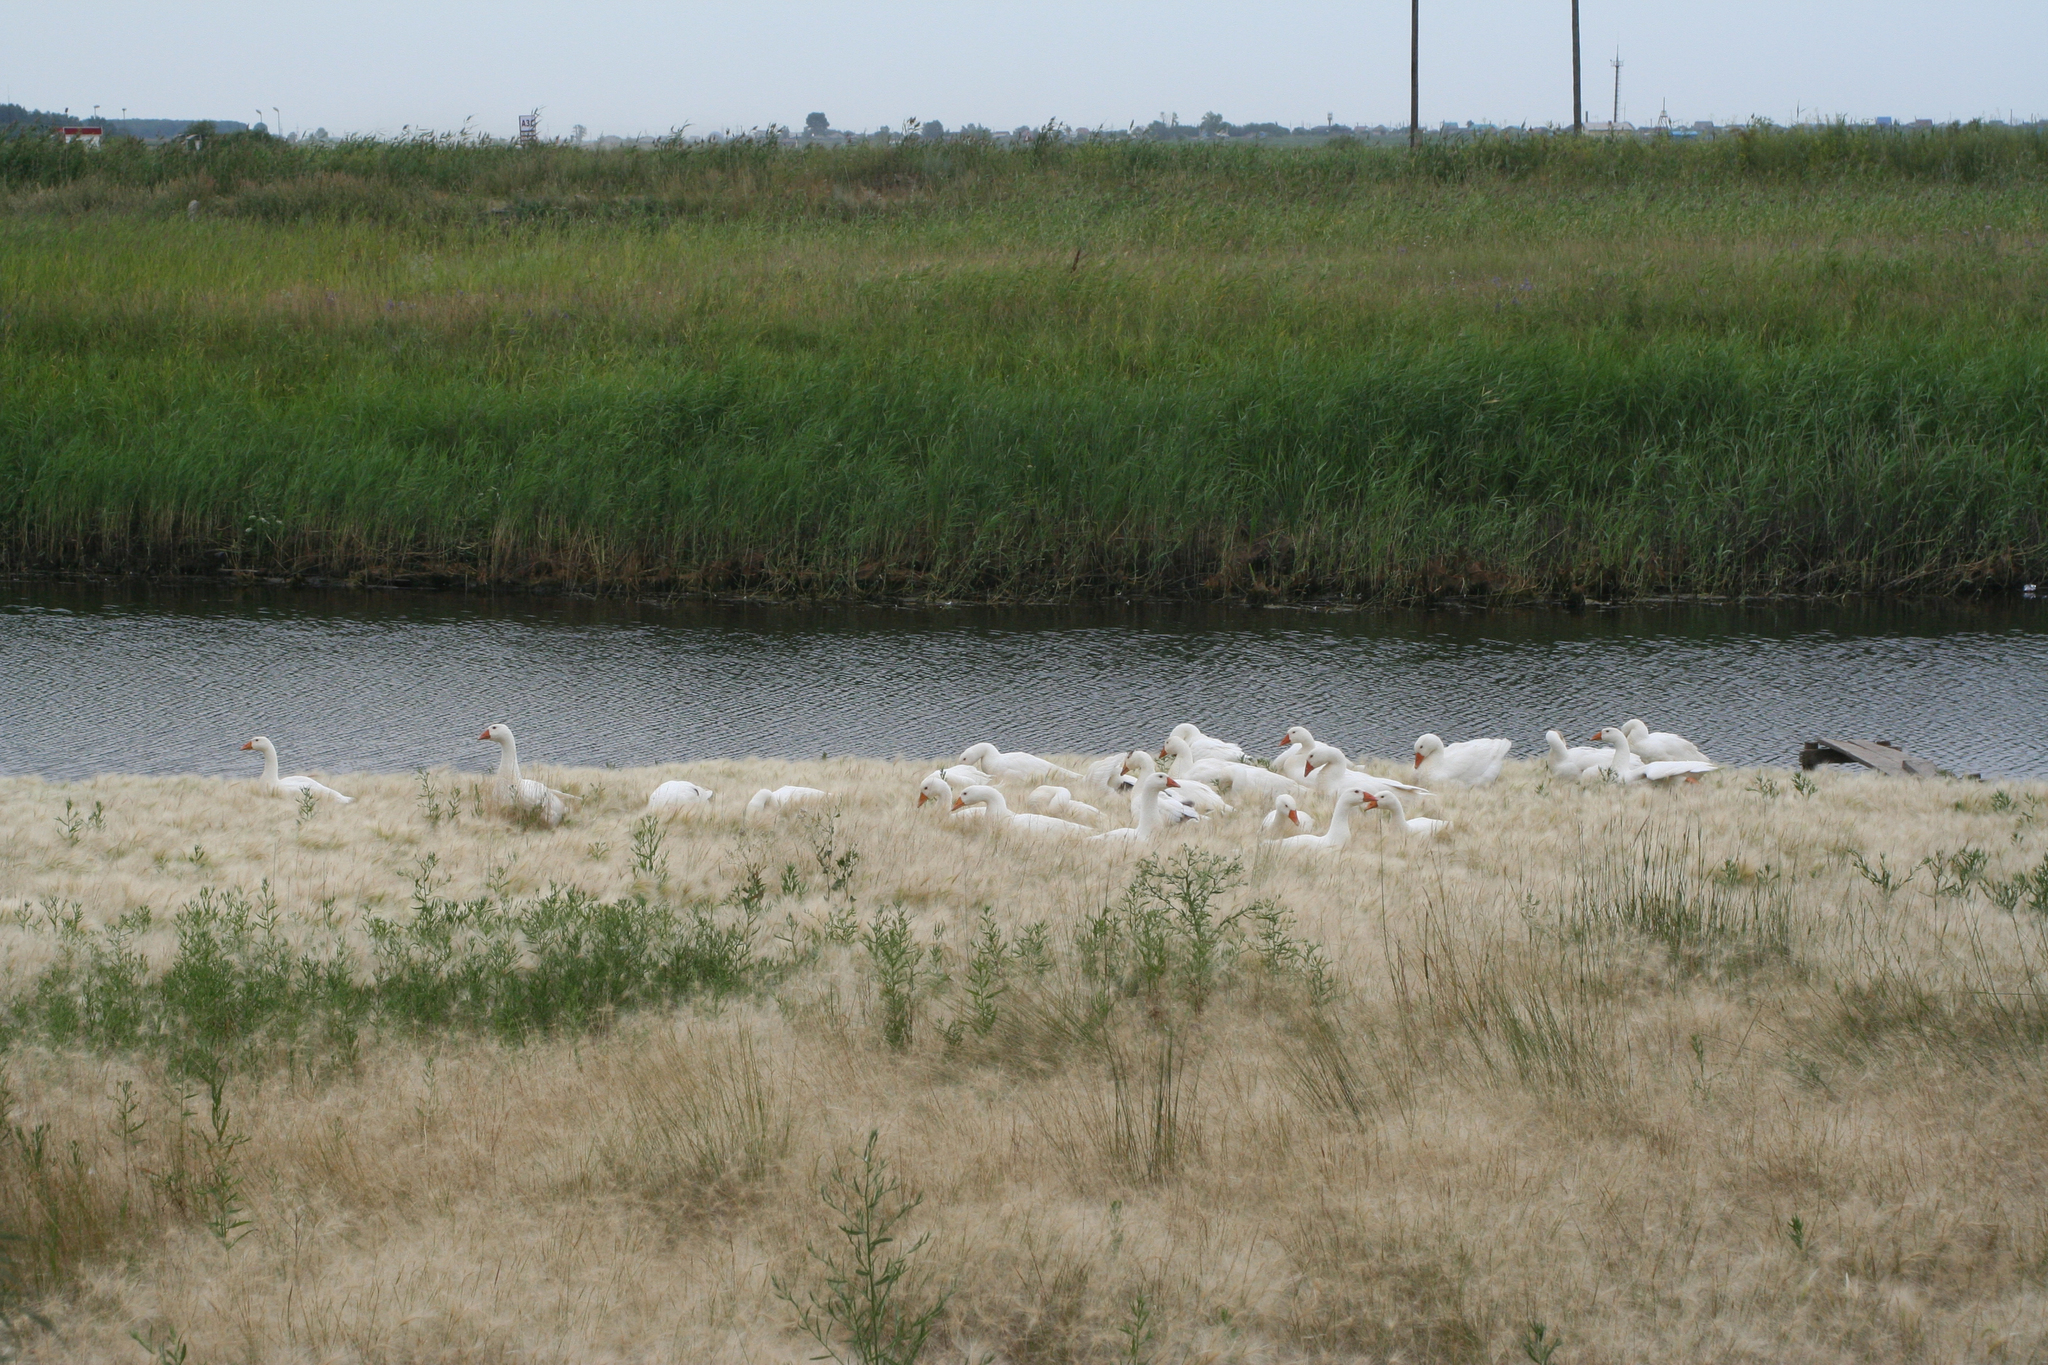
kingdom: Plantae
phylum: Tracheophyta
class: Liliopsida
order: Poales
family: Poaceae
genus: Hordeum
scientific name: Hordeum jubatum
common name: Foxtail barley
